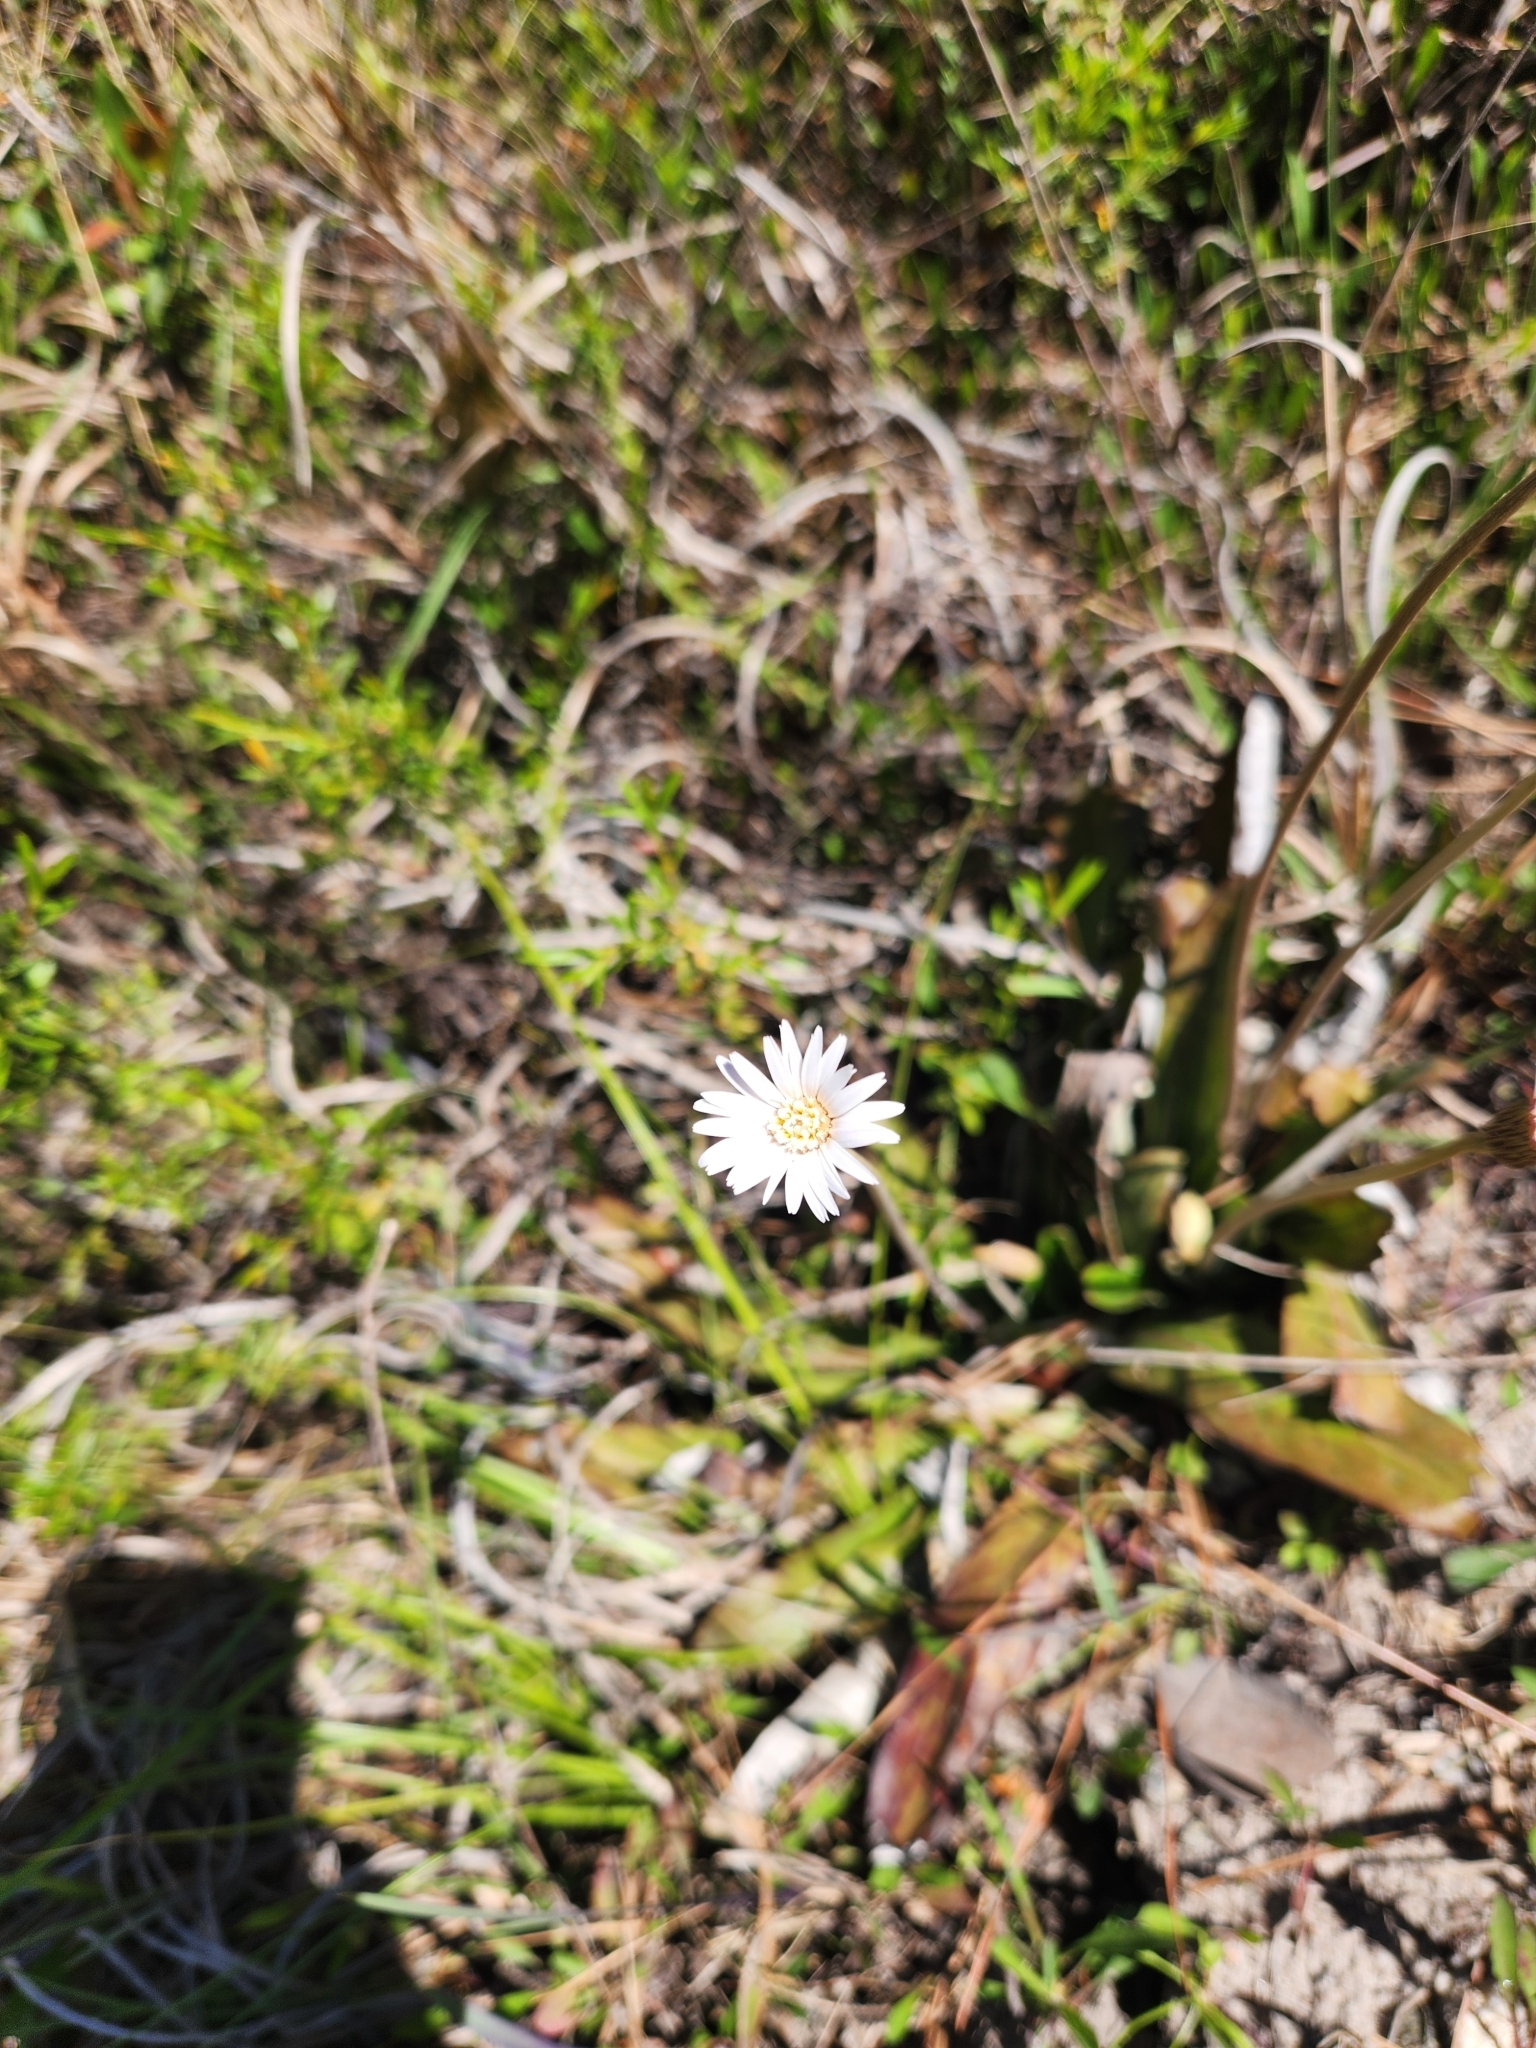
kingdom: Plantae
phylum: Tracheophyta
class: Magnoliopsida
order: Asterales
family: Asteraceae
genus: Chaptalia
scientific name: Chaptalia tomentosa
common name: Woolly sunbonnet
